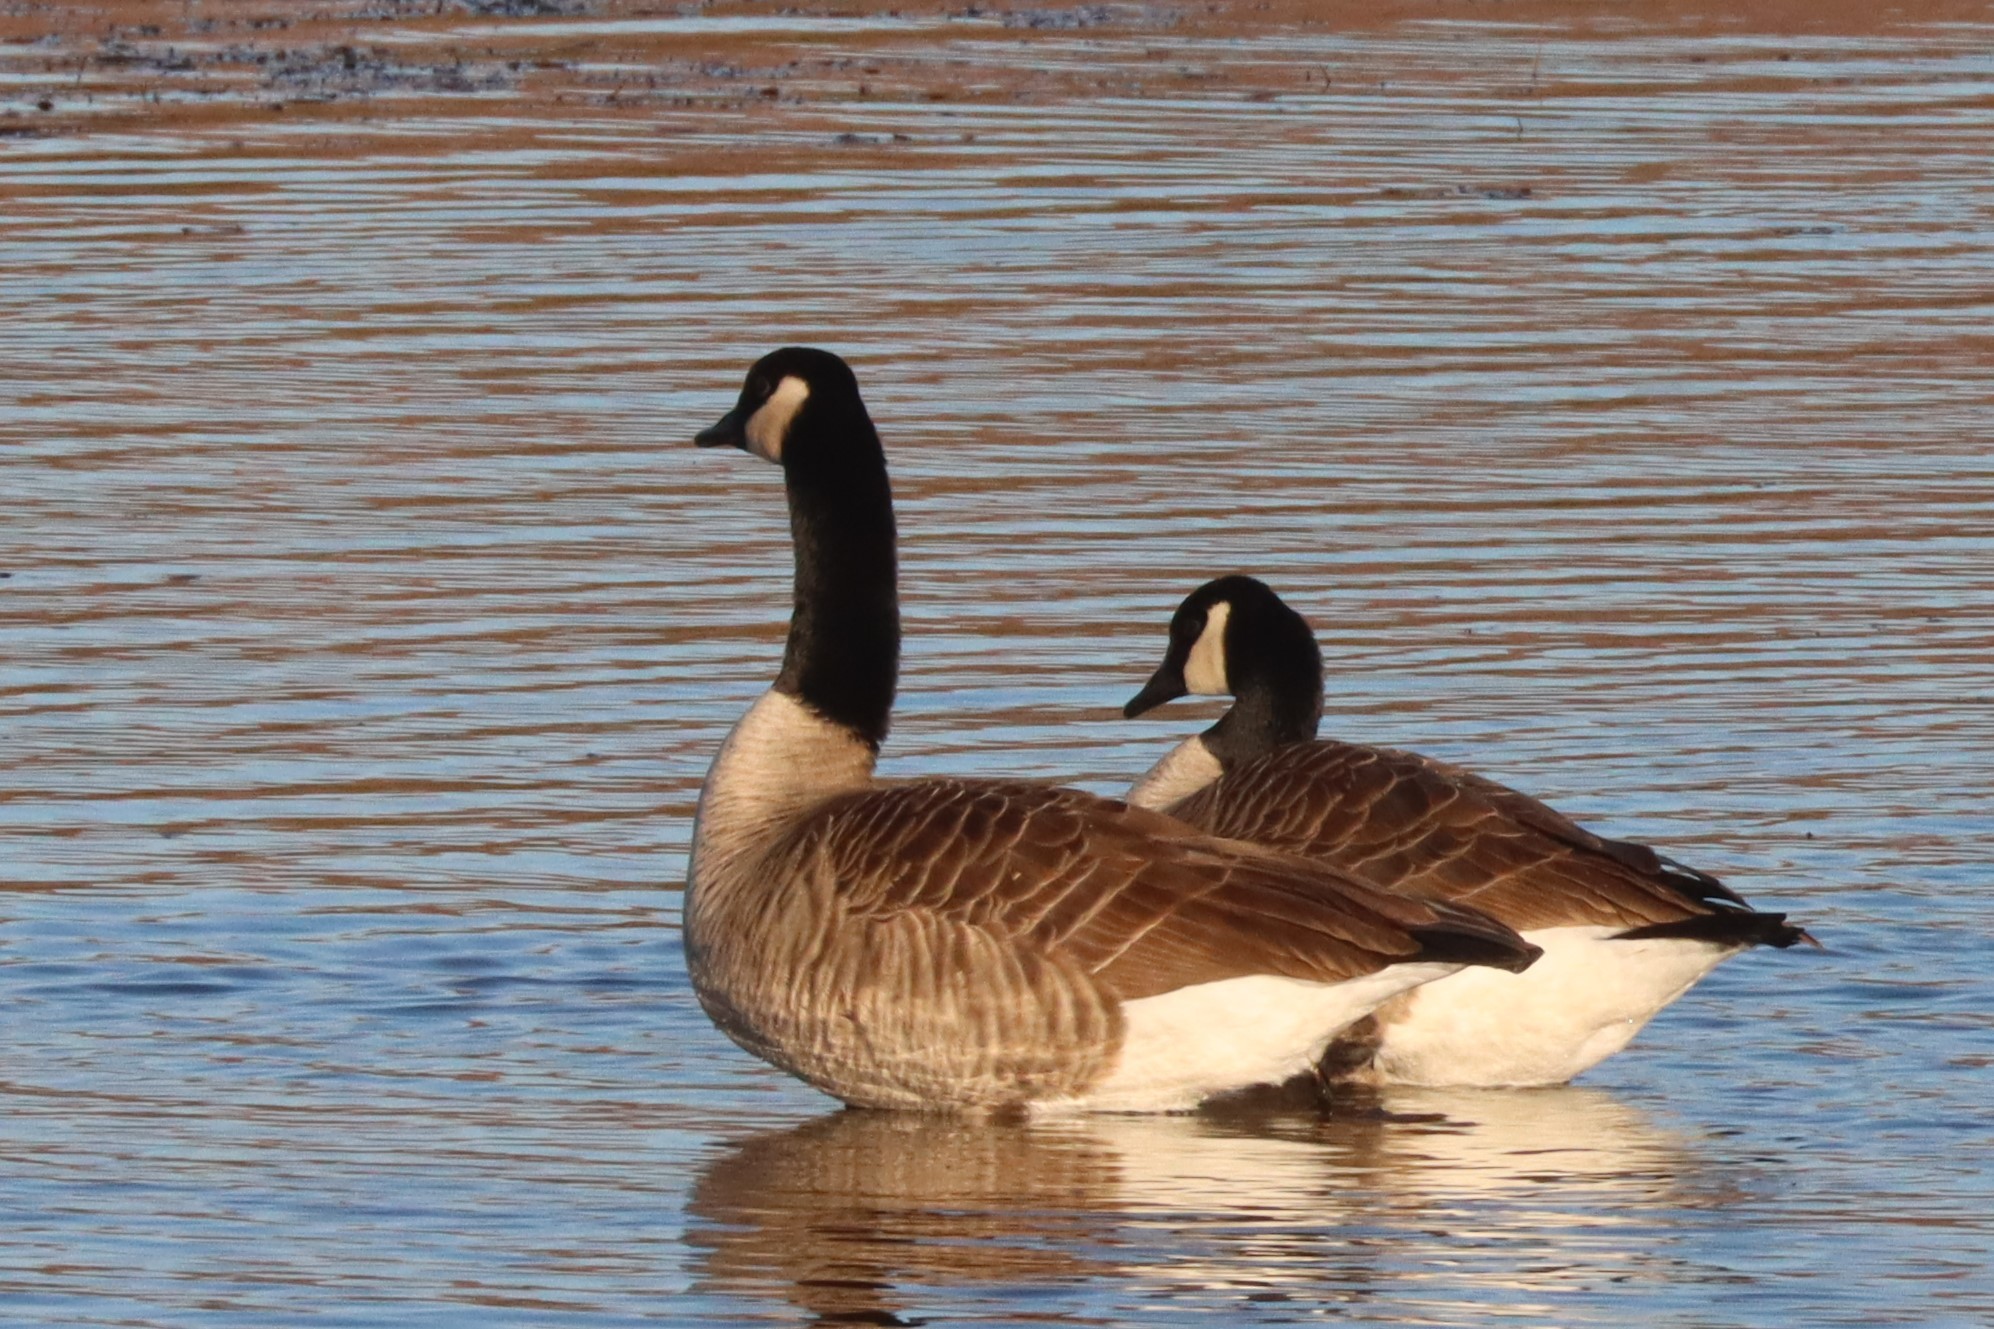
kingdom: Animalia
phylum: Chordata
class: Aves
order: Anseriformes
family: Anatidae
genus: Branta
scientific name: Branta canadensis
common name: Canada goose
